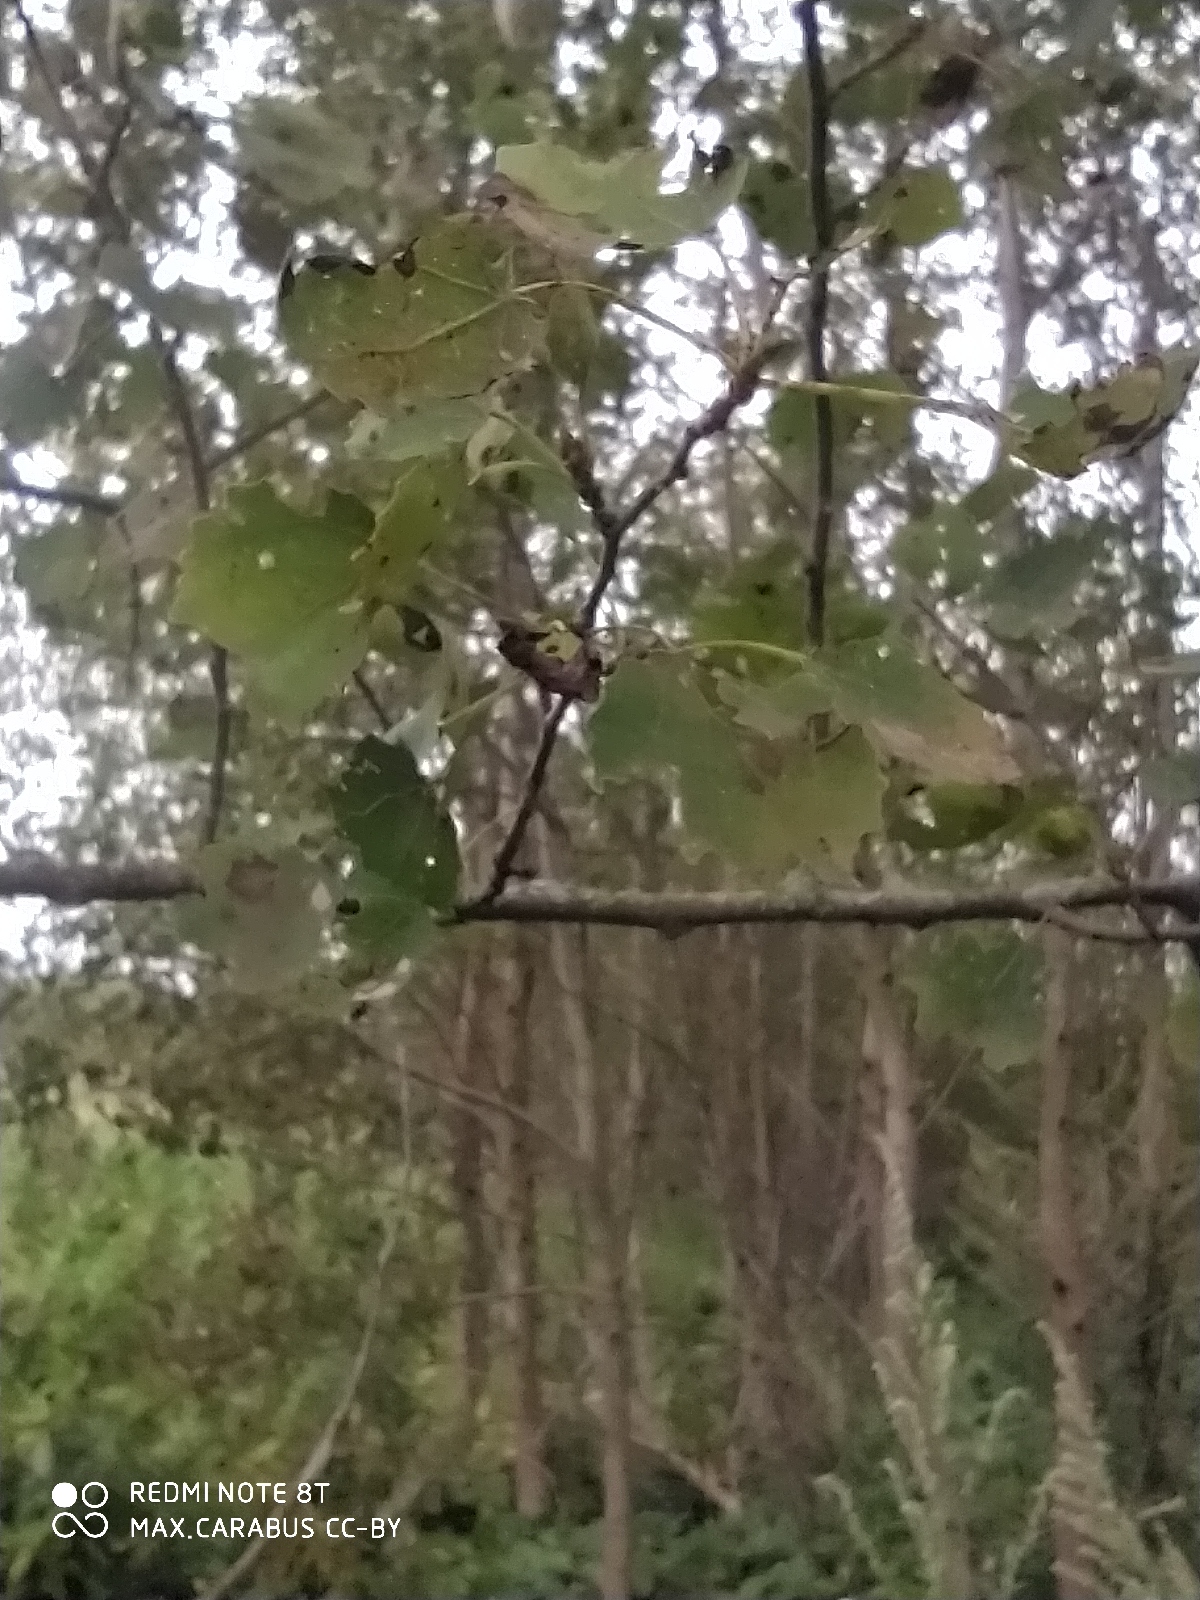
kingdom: Plantae
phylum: Tracheophyta
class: Magnoliopsida
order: Malpighiales
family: Salicaceae
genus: Populus
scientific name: Populus tremula
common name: European aspen
